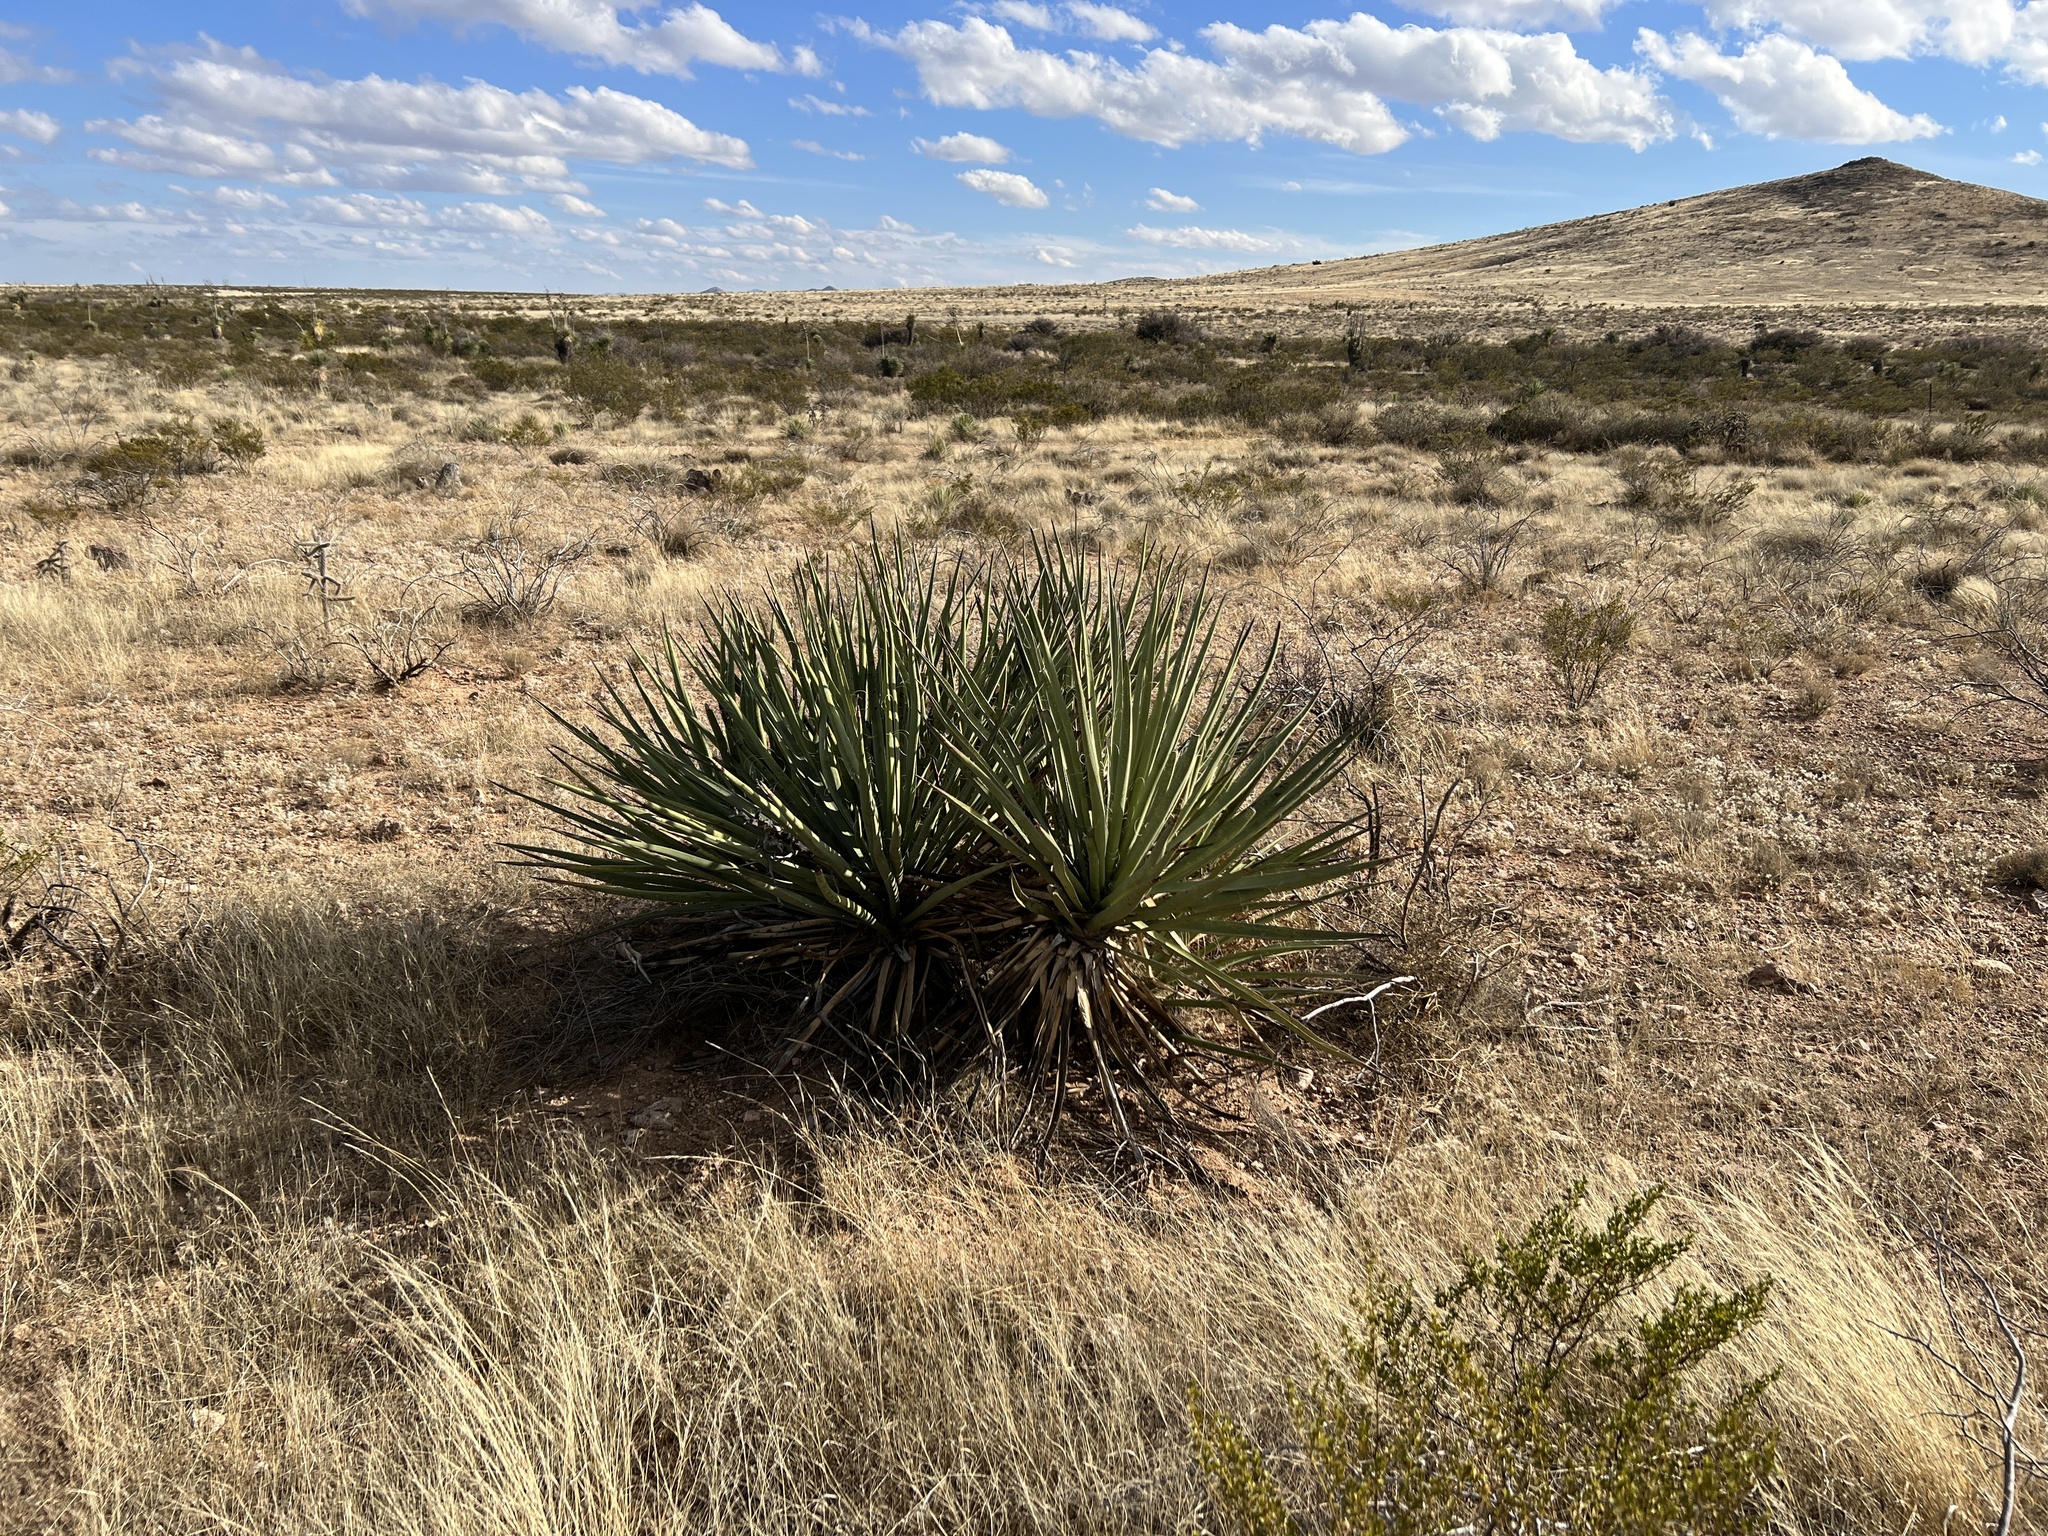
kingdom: Plantae
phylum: Tracheophyta
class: Liliopsida
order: Asparagales
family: Asparagaceae
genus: Yucca
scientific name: Yucca baccata
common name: Banana yucca
